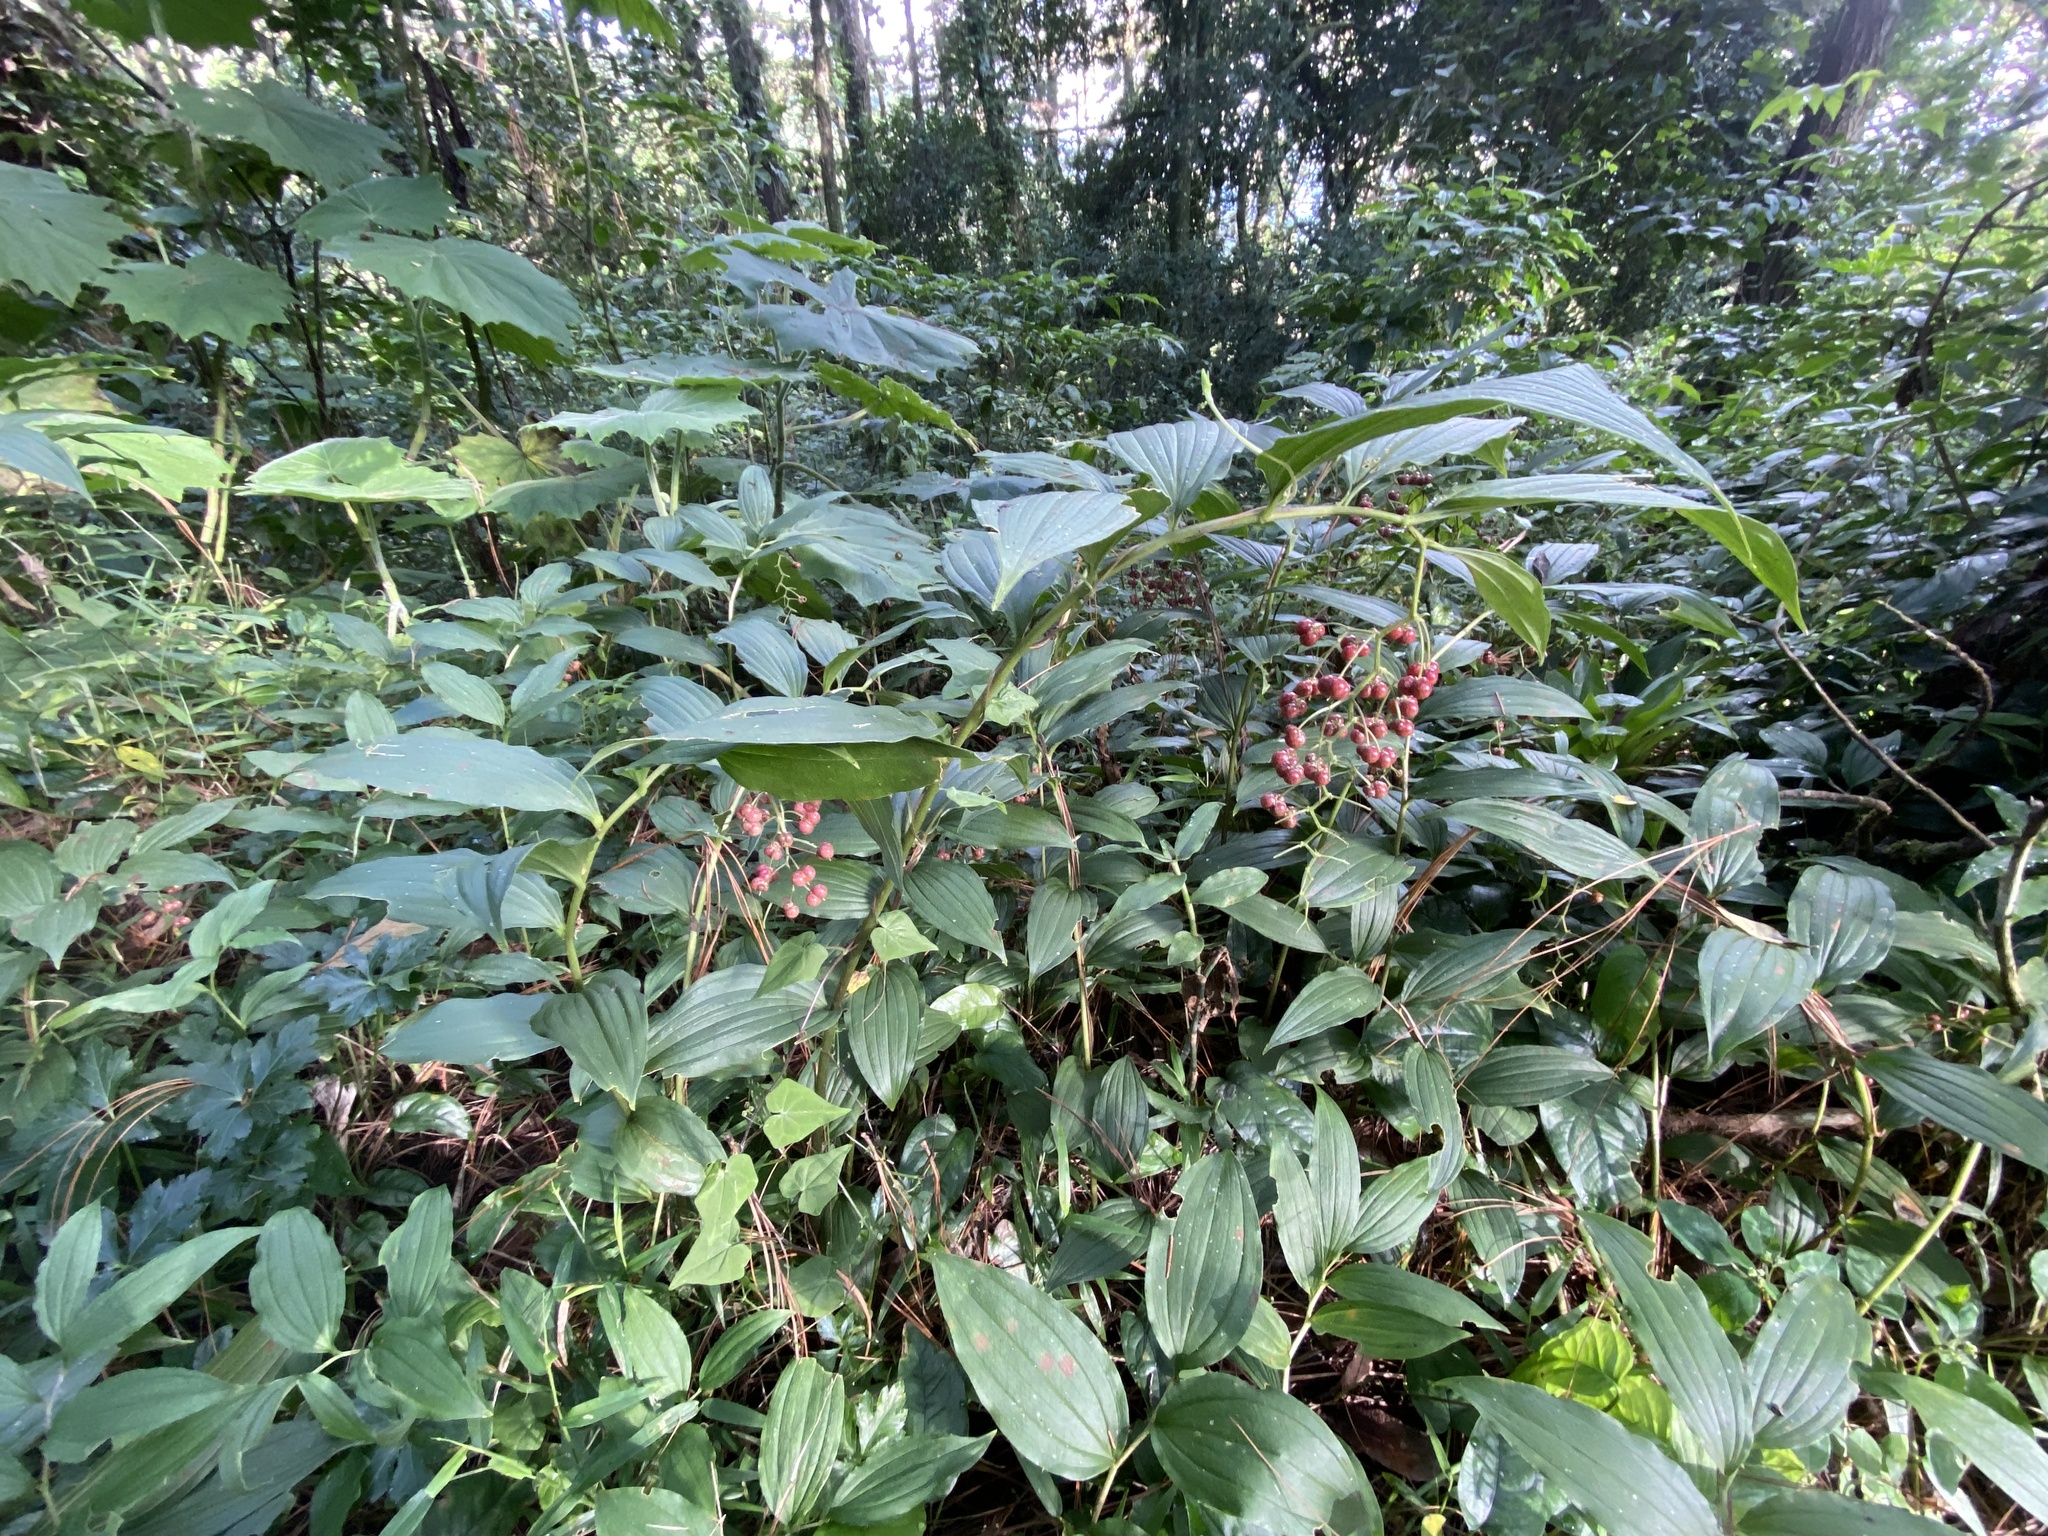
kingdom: Plantae
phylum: Tracheophyta
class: Liliopsida
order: Asparagales
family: Asparagaceae
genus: Maianthemum
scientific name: Maianthemum flexuosum
